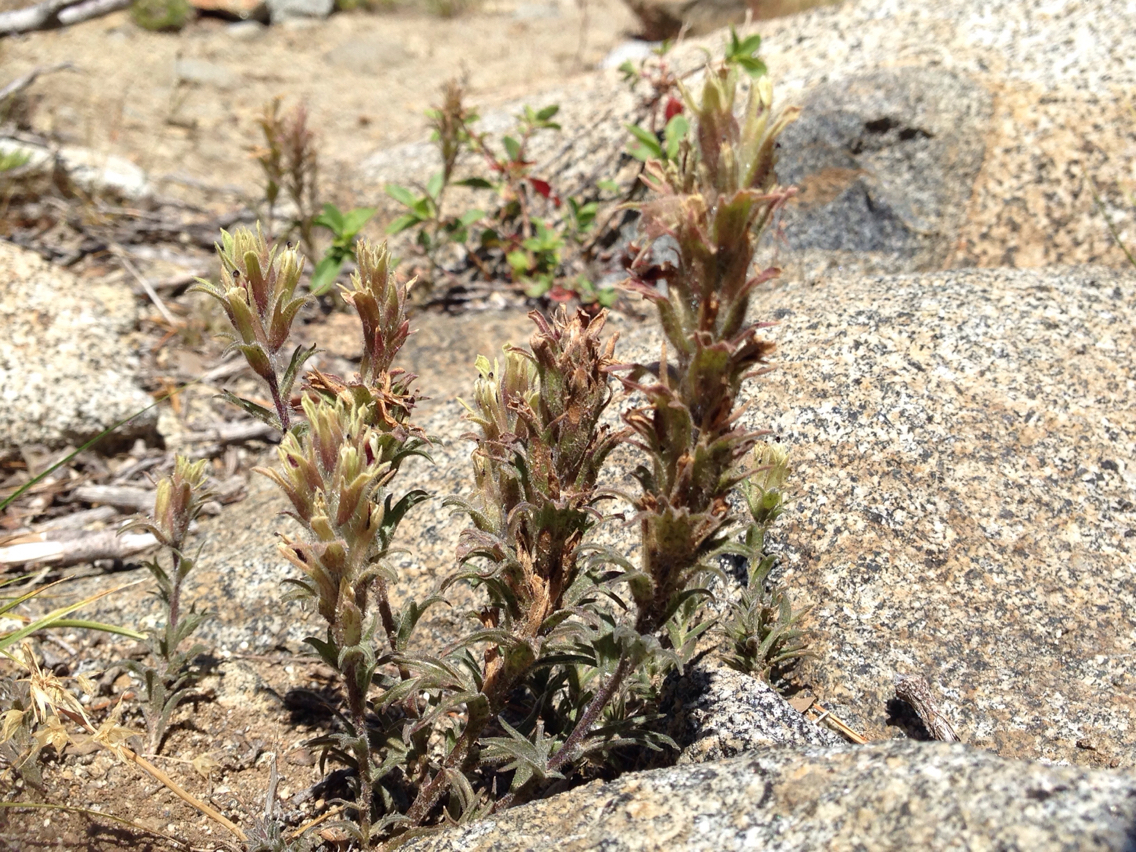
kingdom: Plantae
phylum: Tracheophyta
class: Magnoliopsida
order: Lamiales
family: Orobanchaceae
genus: Castilleja
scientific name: Castilleja nana
